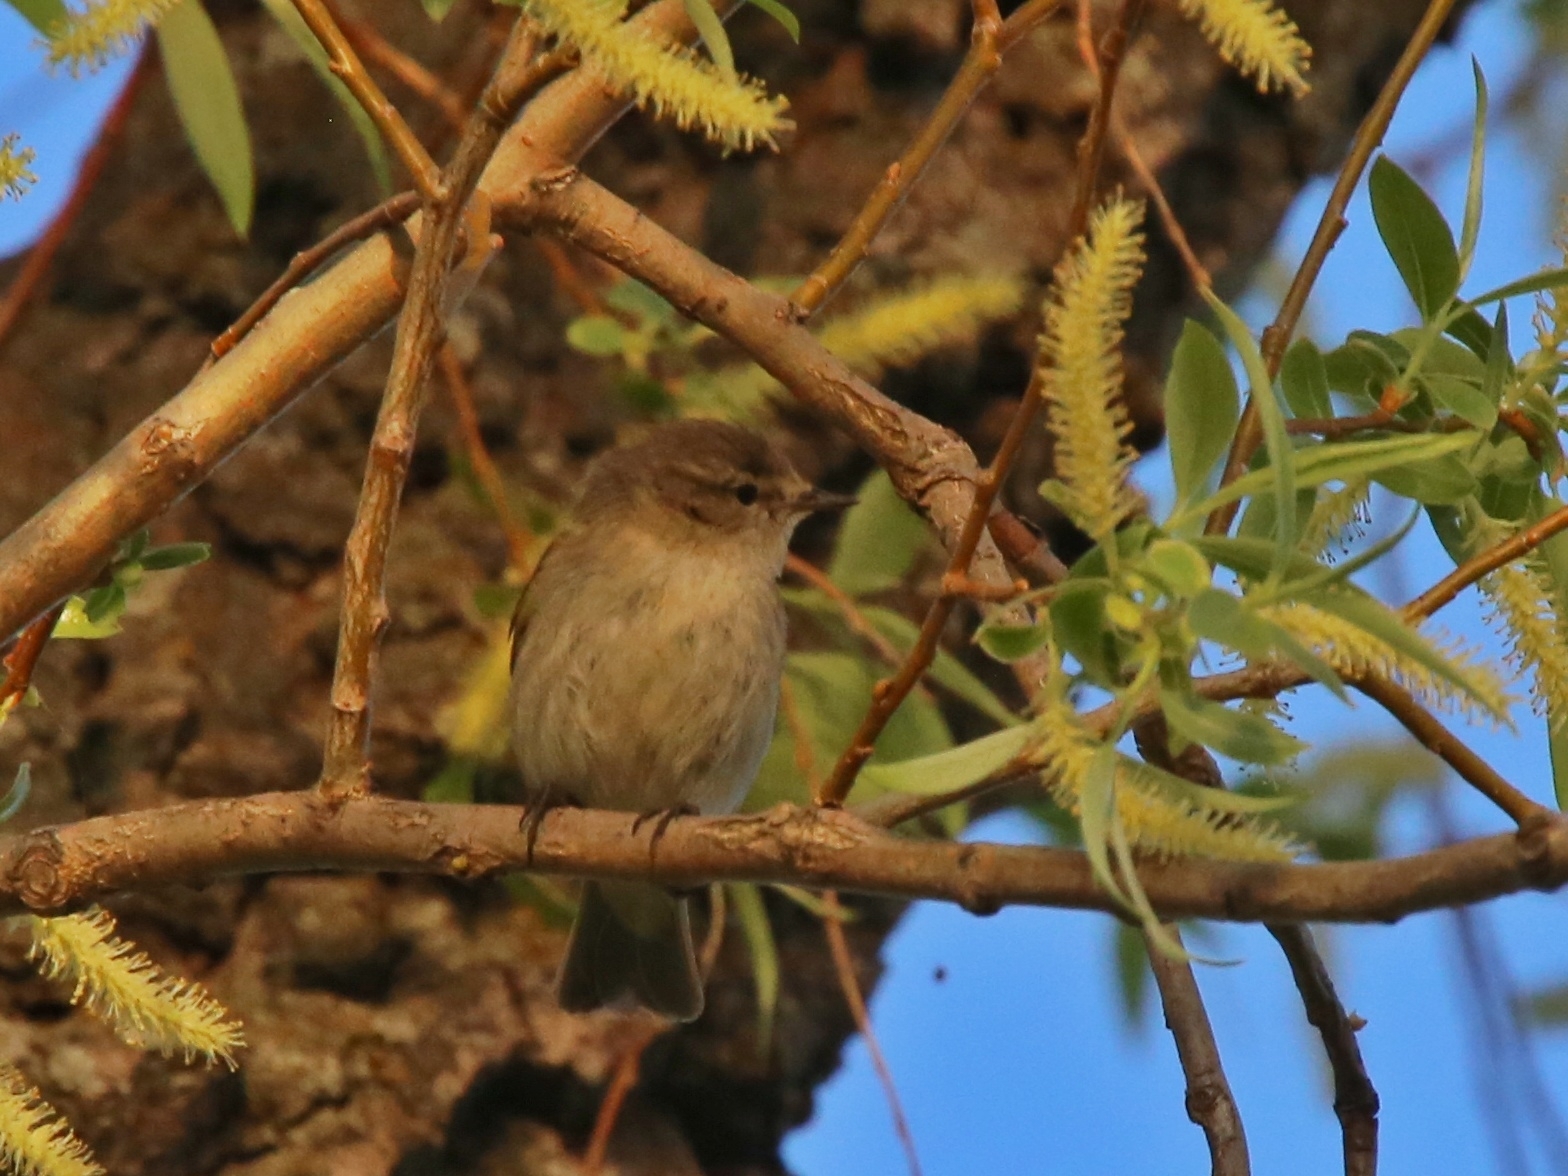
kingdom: Animalia
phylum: Chordata
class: Aves
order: Passeriformes
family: Phylloscopidae
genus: Phylloscopus
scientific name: Phylloscopus collybita
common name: Common chiffchaff
